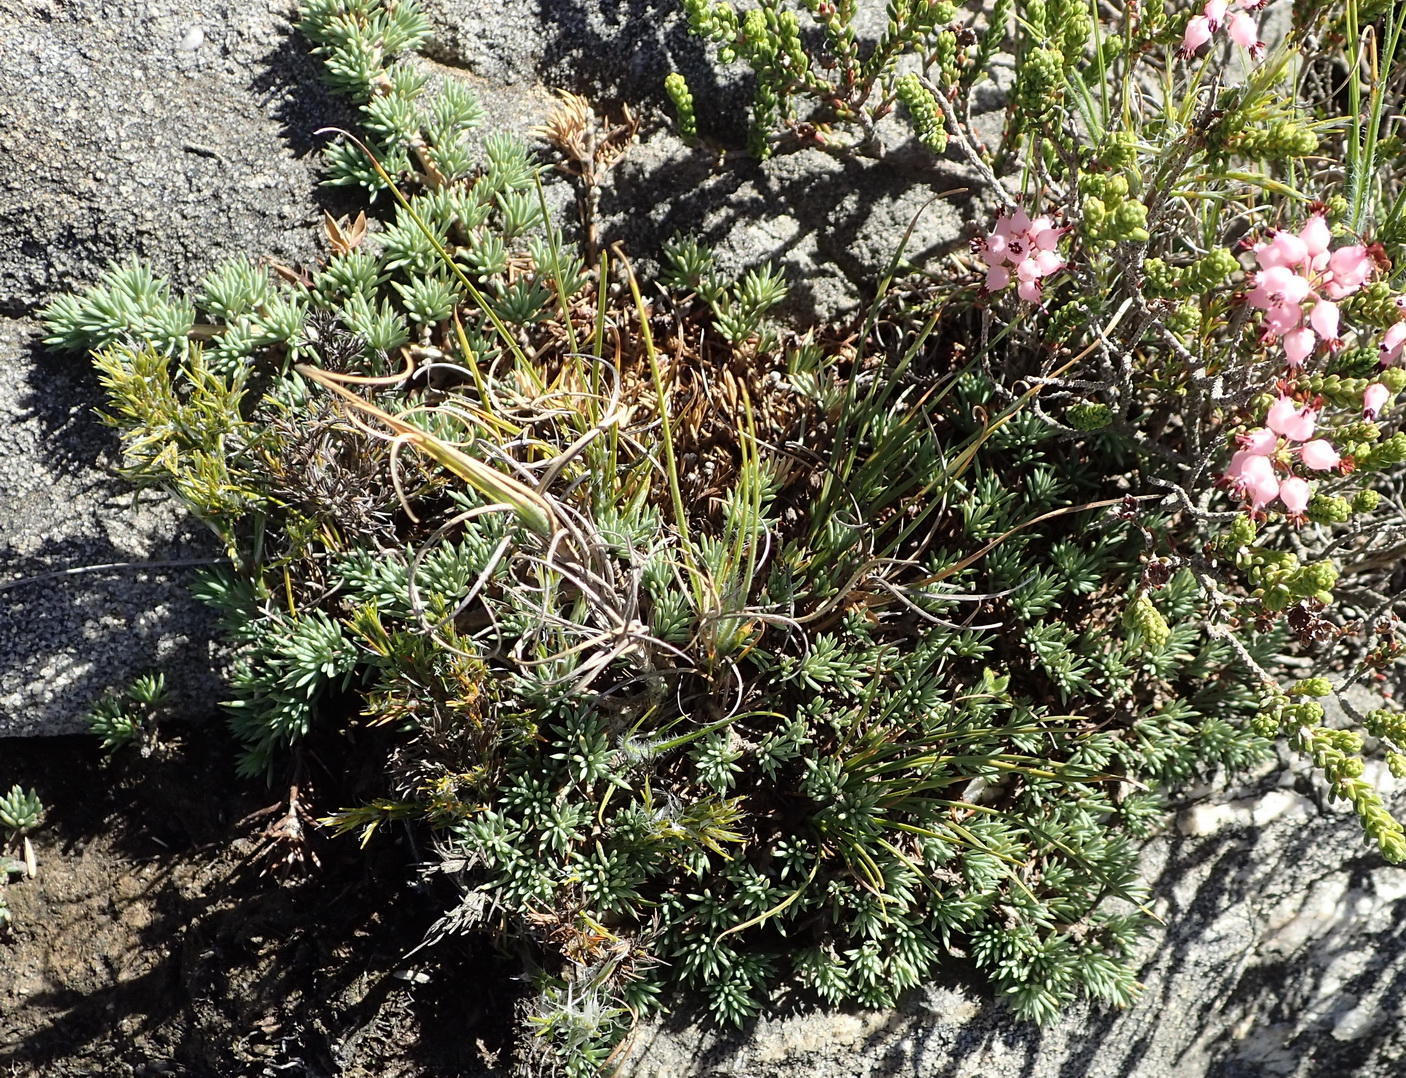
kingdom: Plantae
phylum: Tracheophyta
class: Magnoliopsida
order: Fabales
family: Fabaceae
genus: Aspalathus
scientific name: Aspalathus rigidifolia
